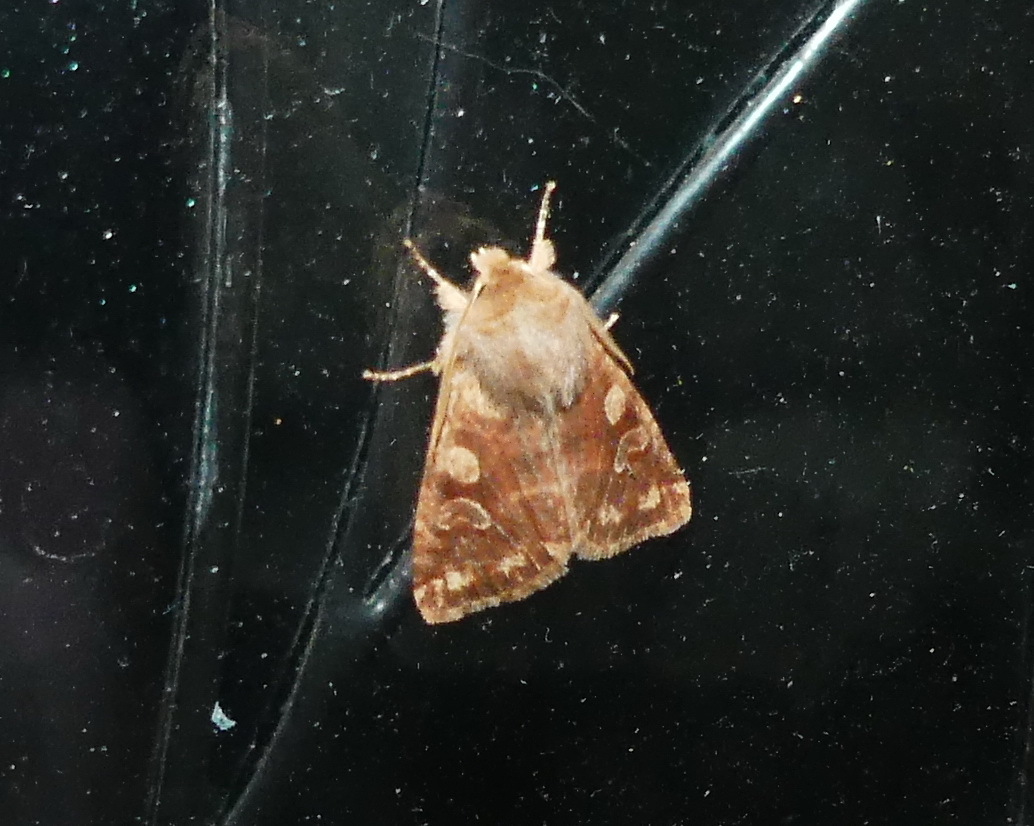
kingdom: Animalia
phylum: Arthropoda
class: Insecta
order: Lepidoptera
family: Noctuidae
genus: Orthosia
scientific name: Orthosia rubescens
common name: Ruby quaker
